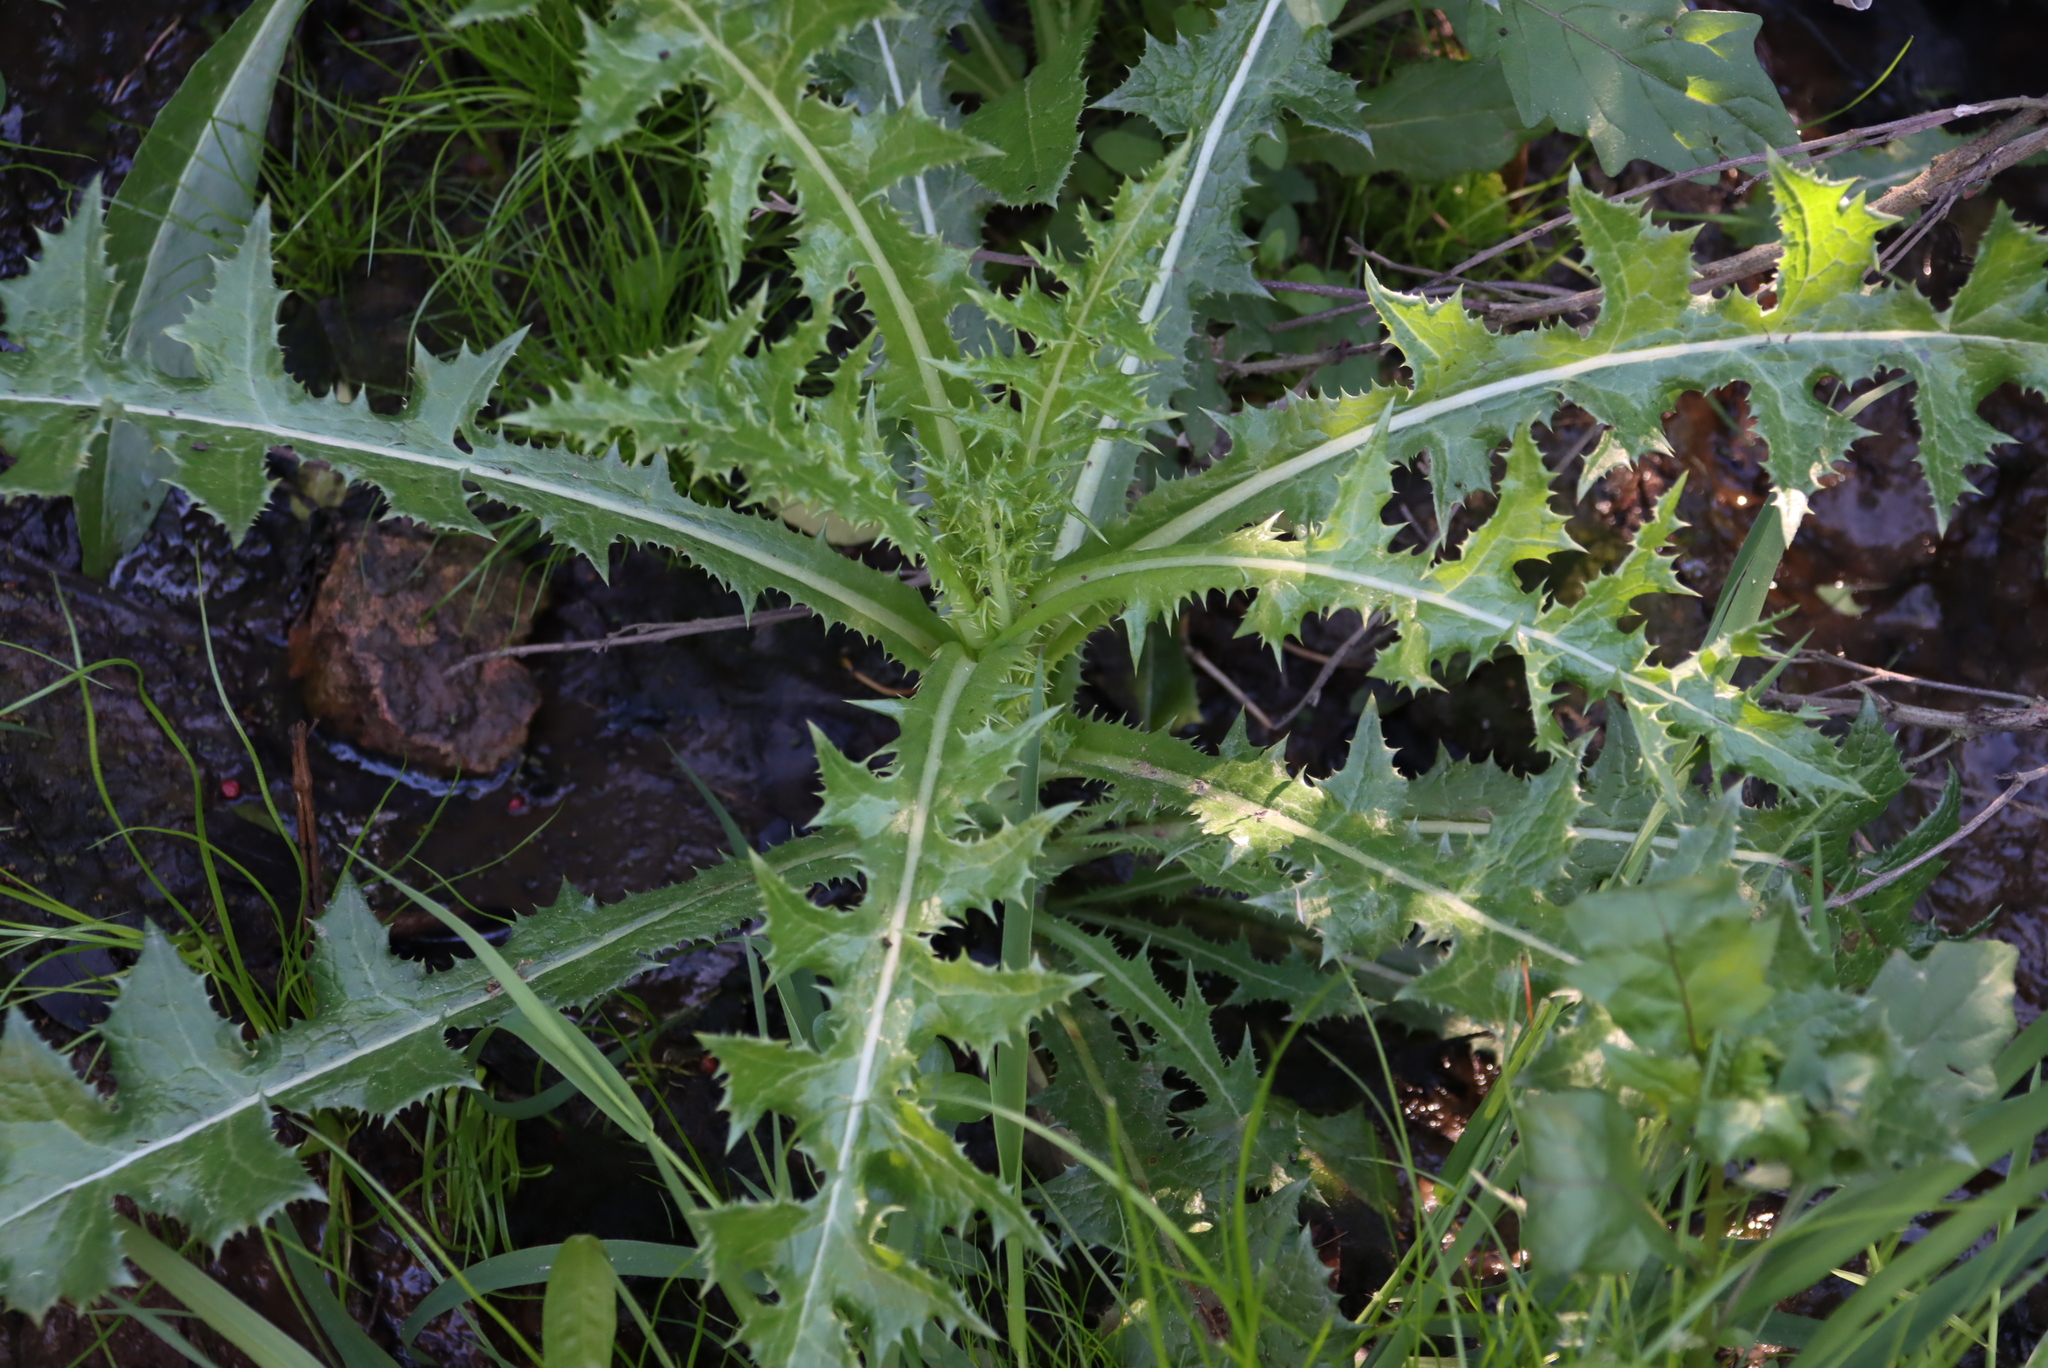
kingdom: Plantae
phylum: Tracheophyta
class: Magnoliopsida
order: Asterales
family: Asteraceae
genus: Sonchus
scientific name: Sonchus asper
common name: Prickly sow-thistle
